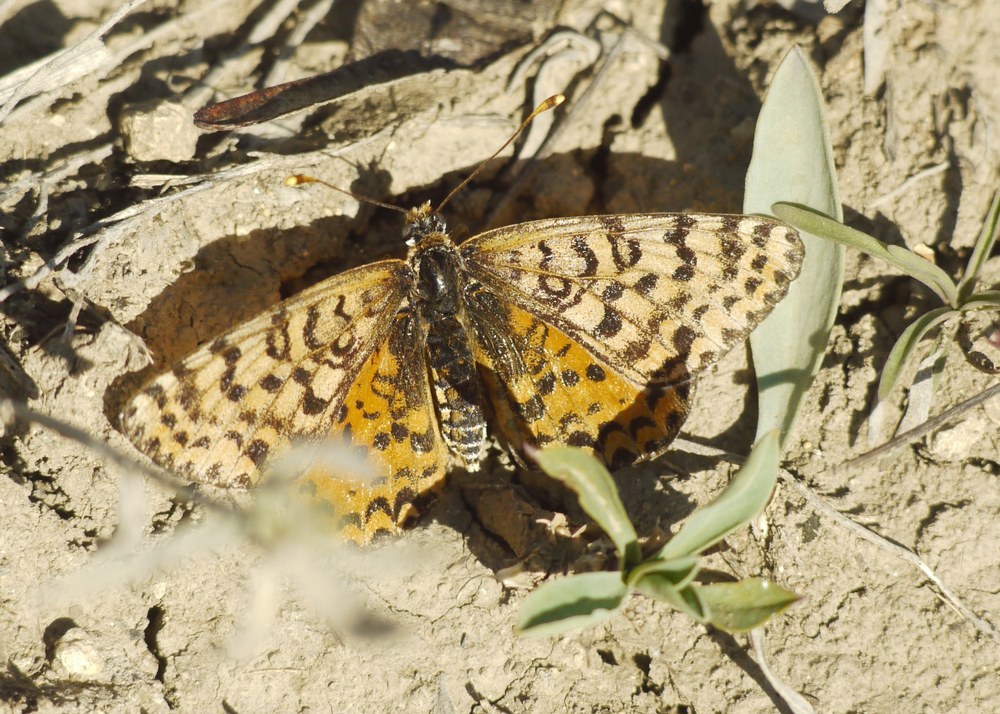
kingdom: Animalia
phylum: Arthropoda
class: Insecta
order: Lepidoptera
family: Nymphalidae
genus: Melitaea
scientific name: Melitaea didyma
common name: Spotted fritillary
